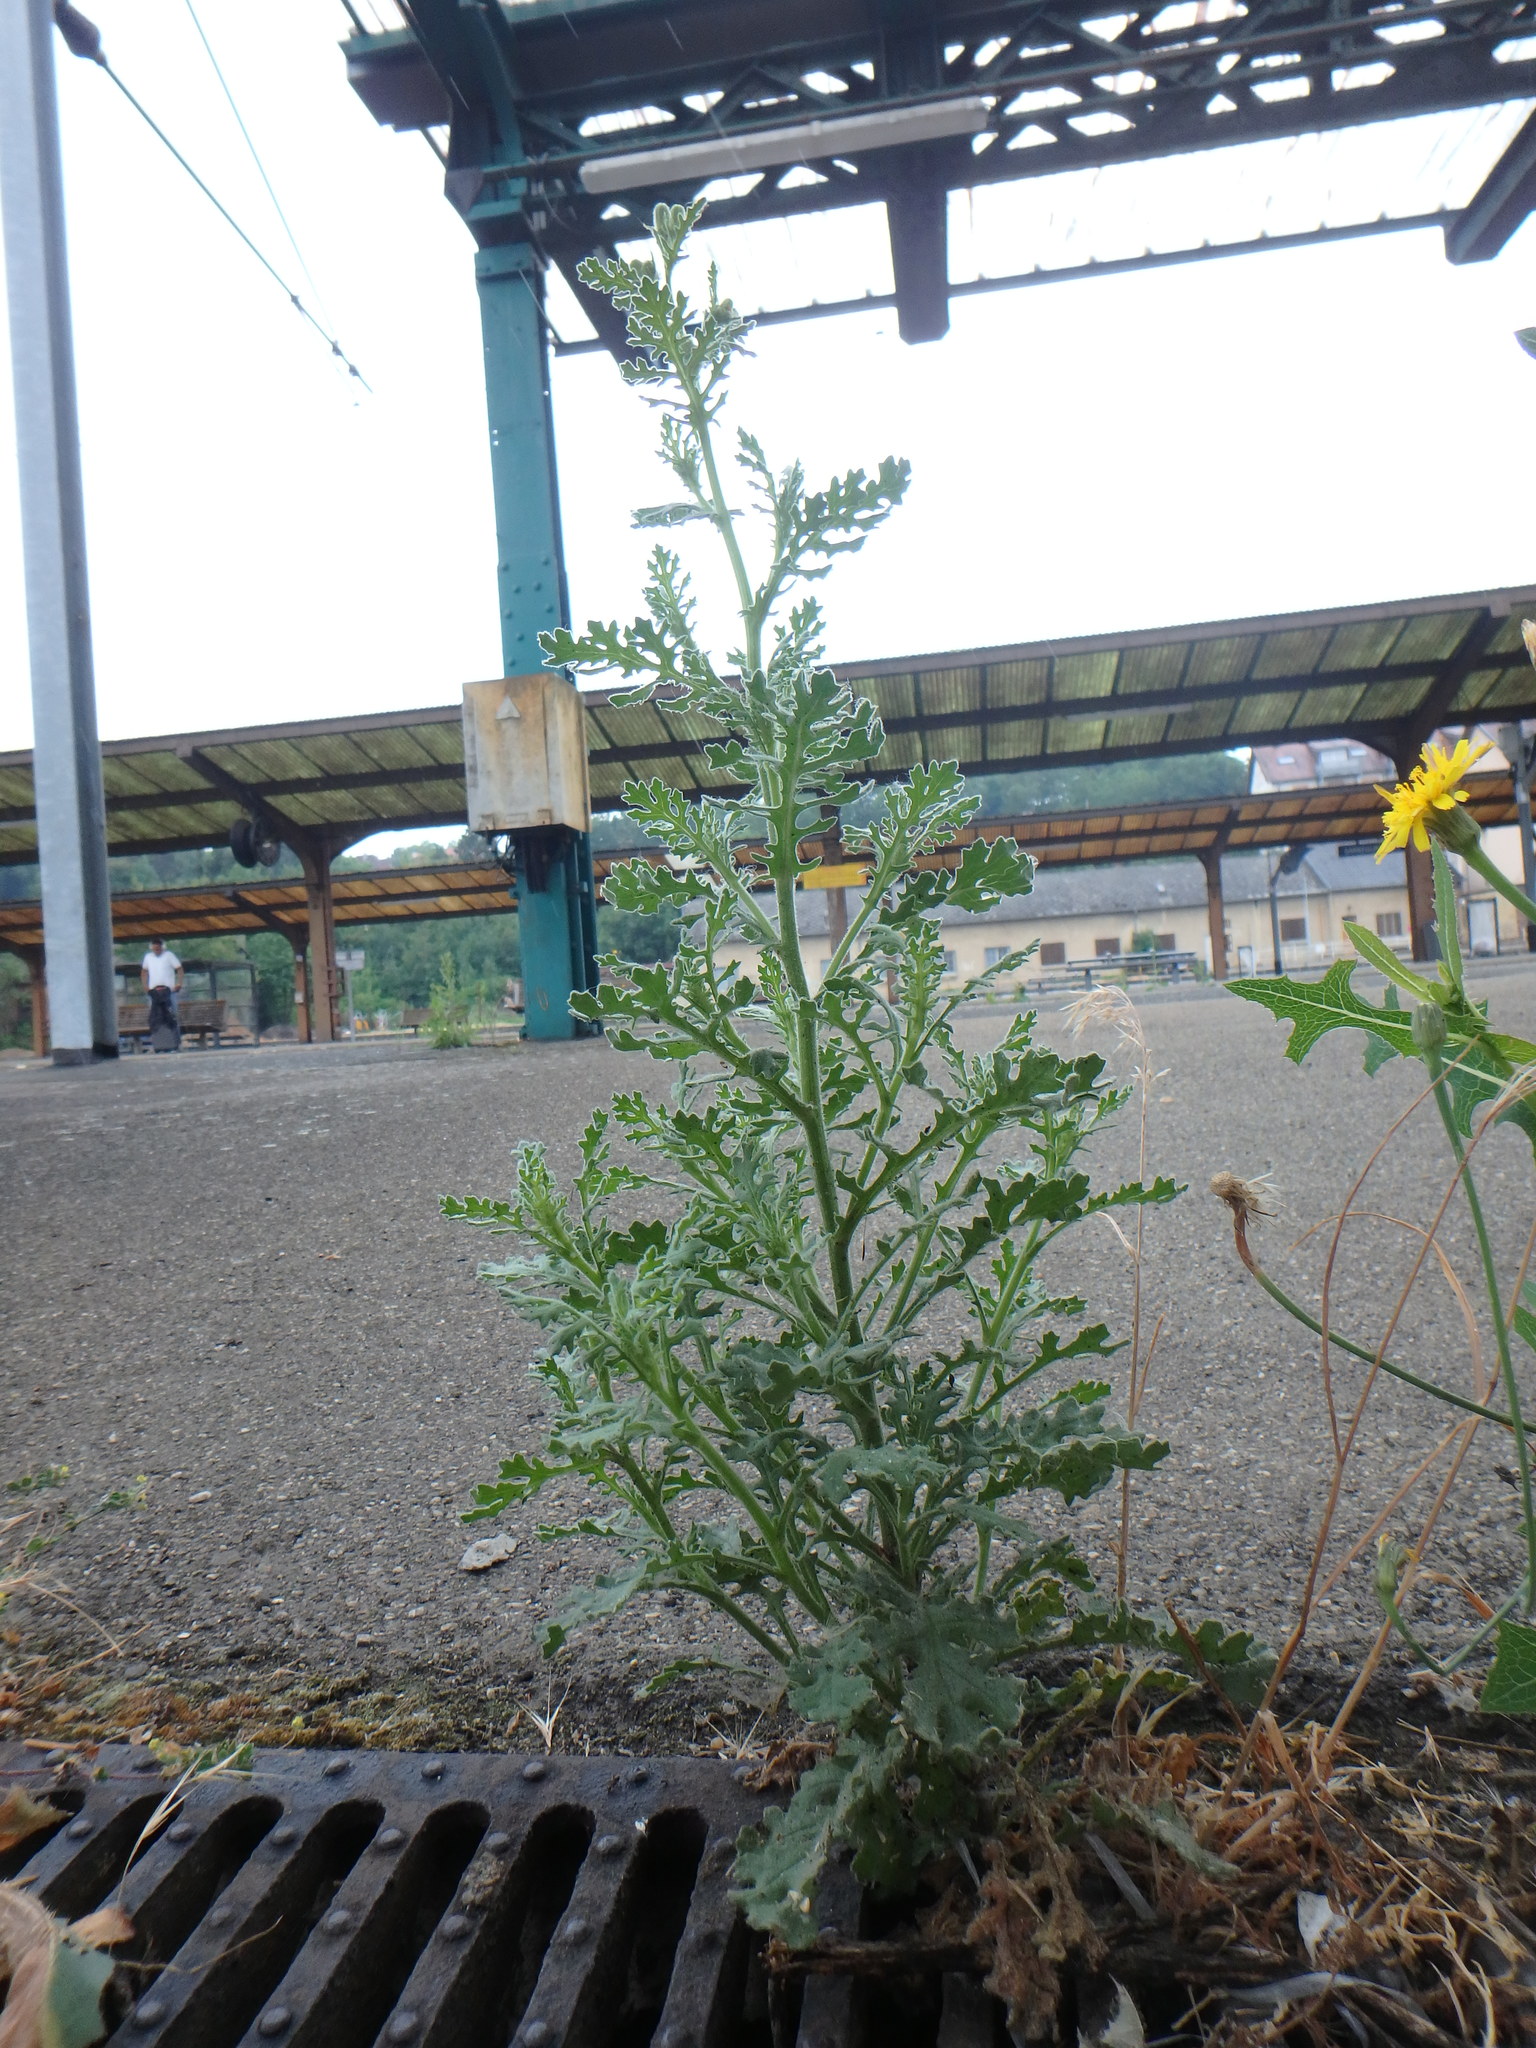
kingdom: Plantae
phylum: Tracheophyta
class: Magnoliopsida
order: Asterales
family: Asteraceae
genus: Senecio
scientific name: Senecio viscosus
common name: Sticky groundsel
